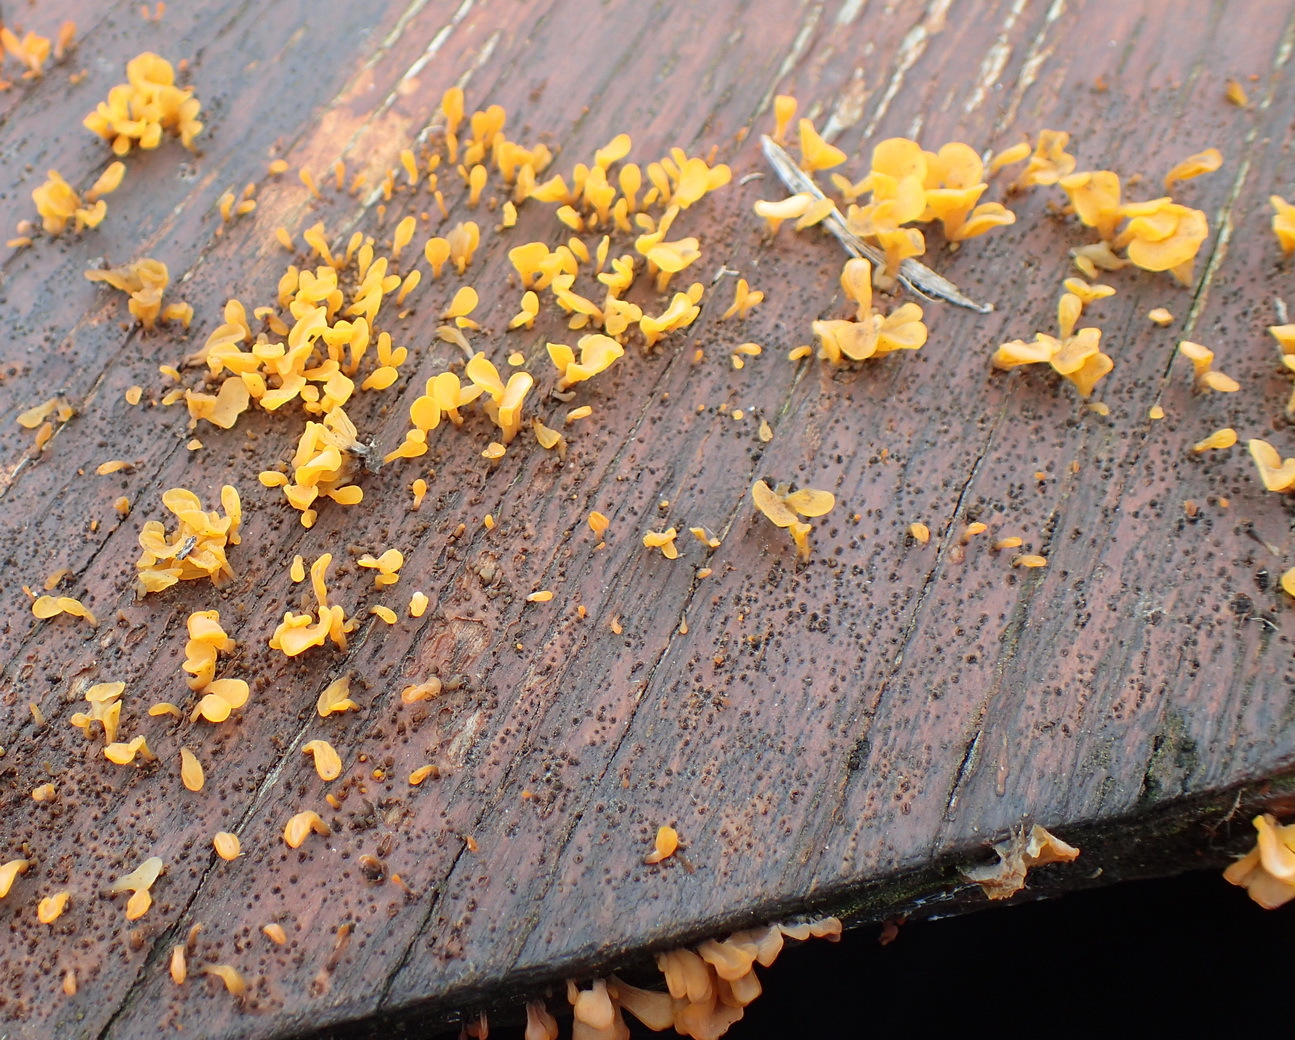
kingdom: Fungi
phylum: Basidiomycota
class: Dacrymycetes
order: Dacrymycetales
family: Dacrymycetaceae
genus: Dacrymyces
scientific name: Dacrymyces spathularius
